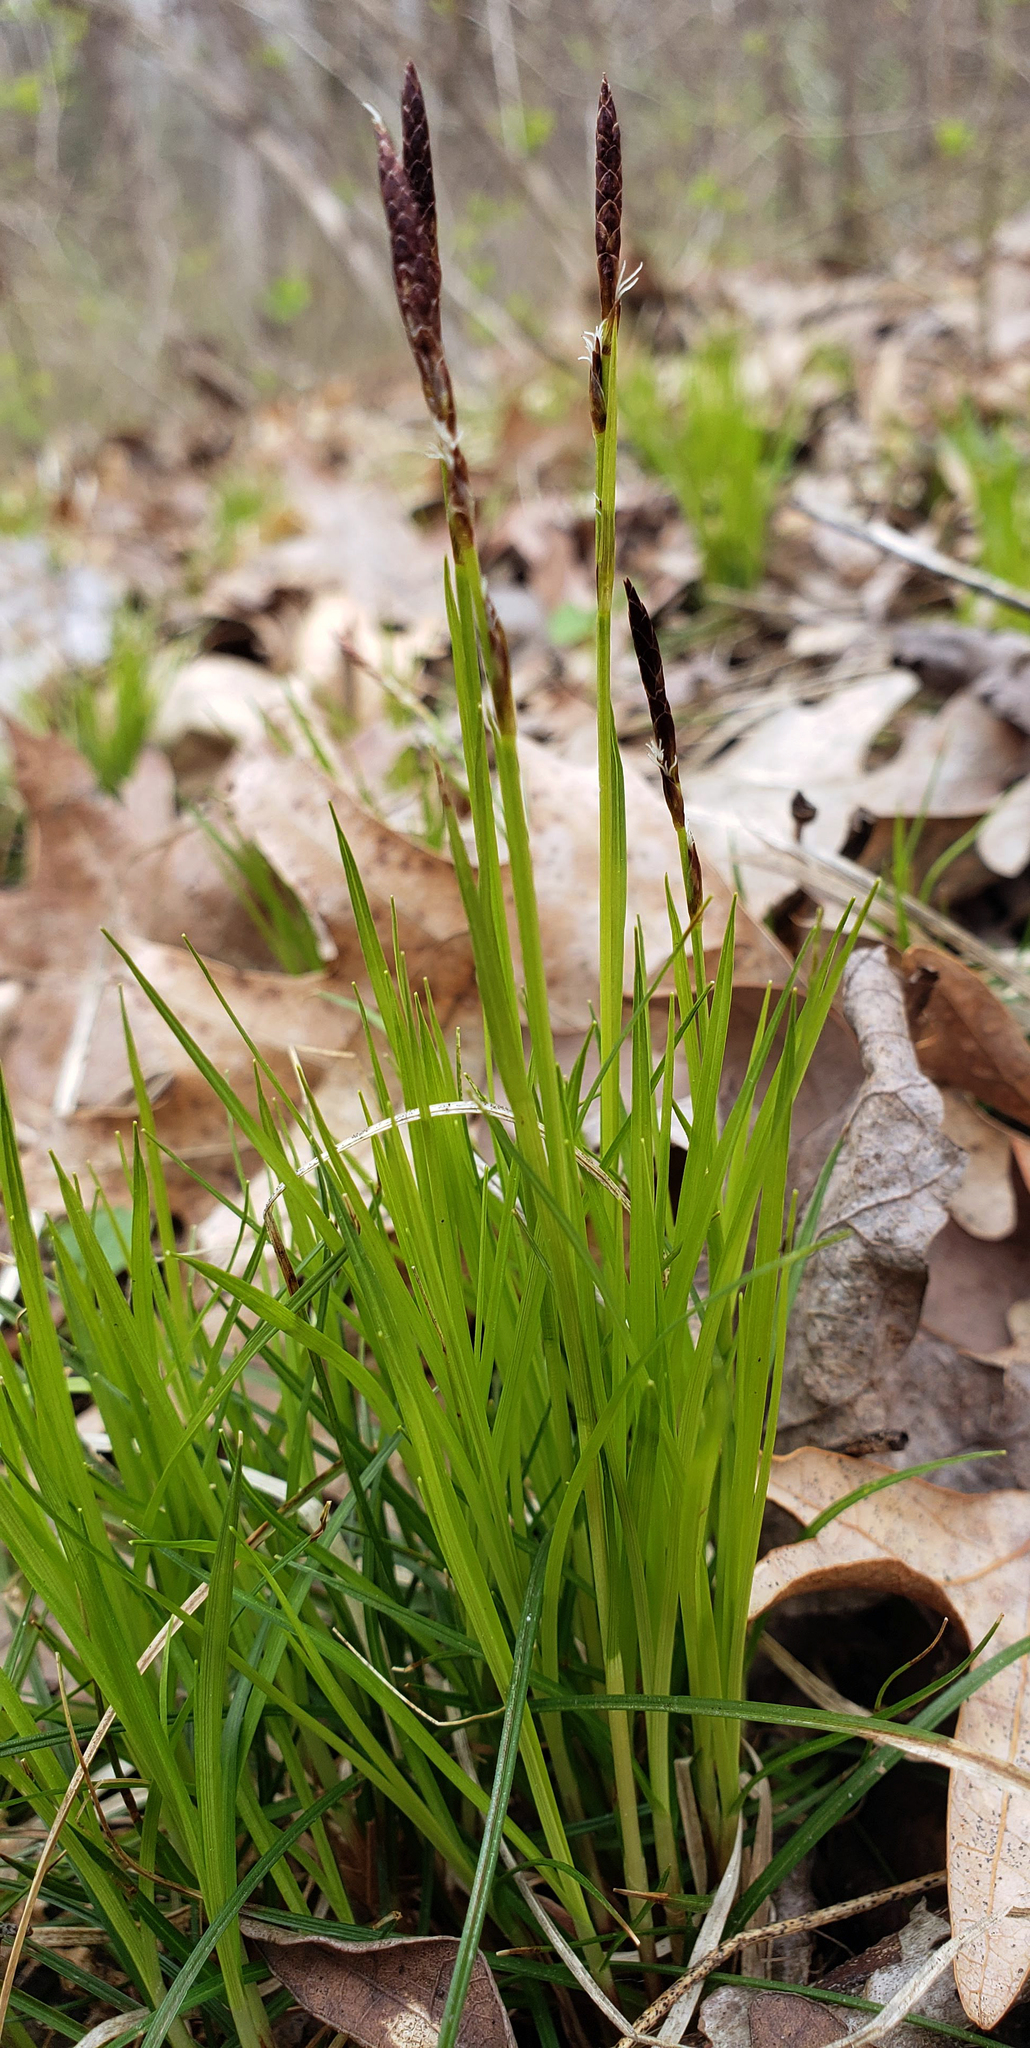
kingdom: Plantae
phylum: Tracheophyta
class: Liliopsida
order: Poales
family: Cyperaceae
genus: Carex
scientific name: Carex pensylvanica
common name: Common oak sedge
